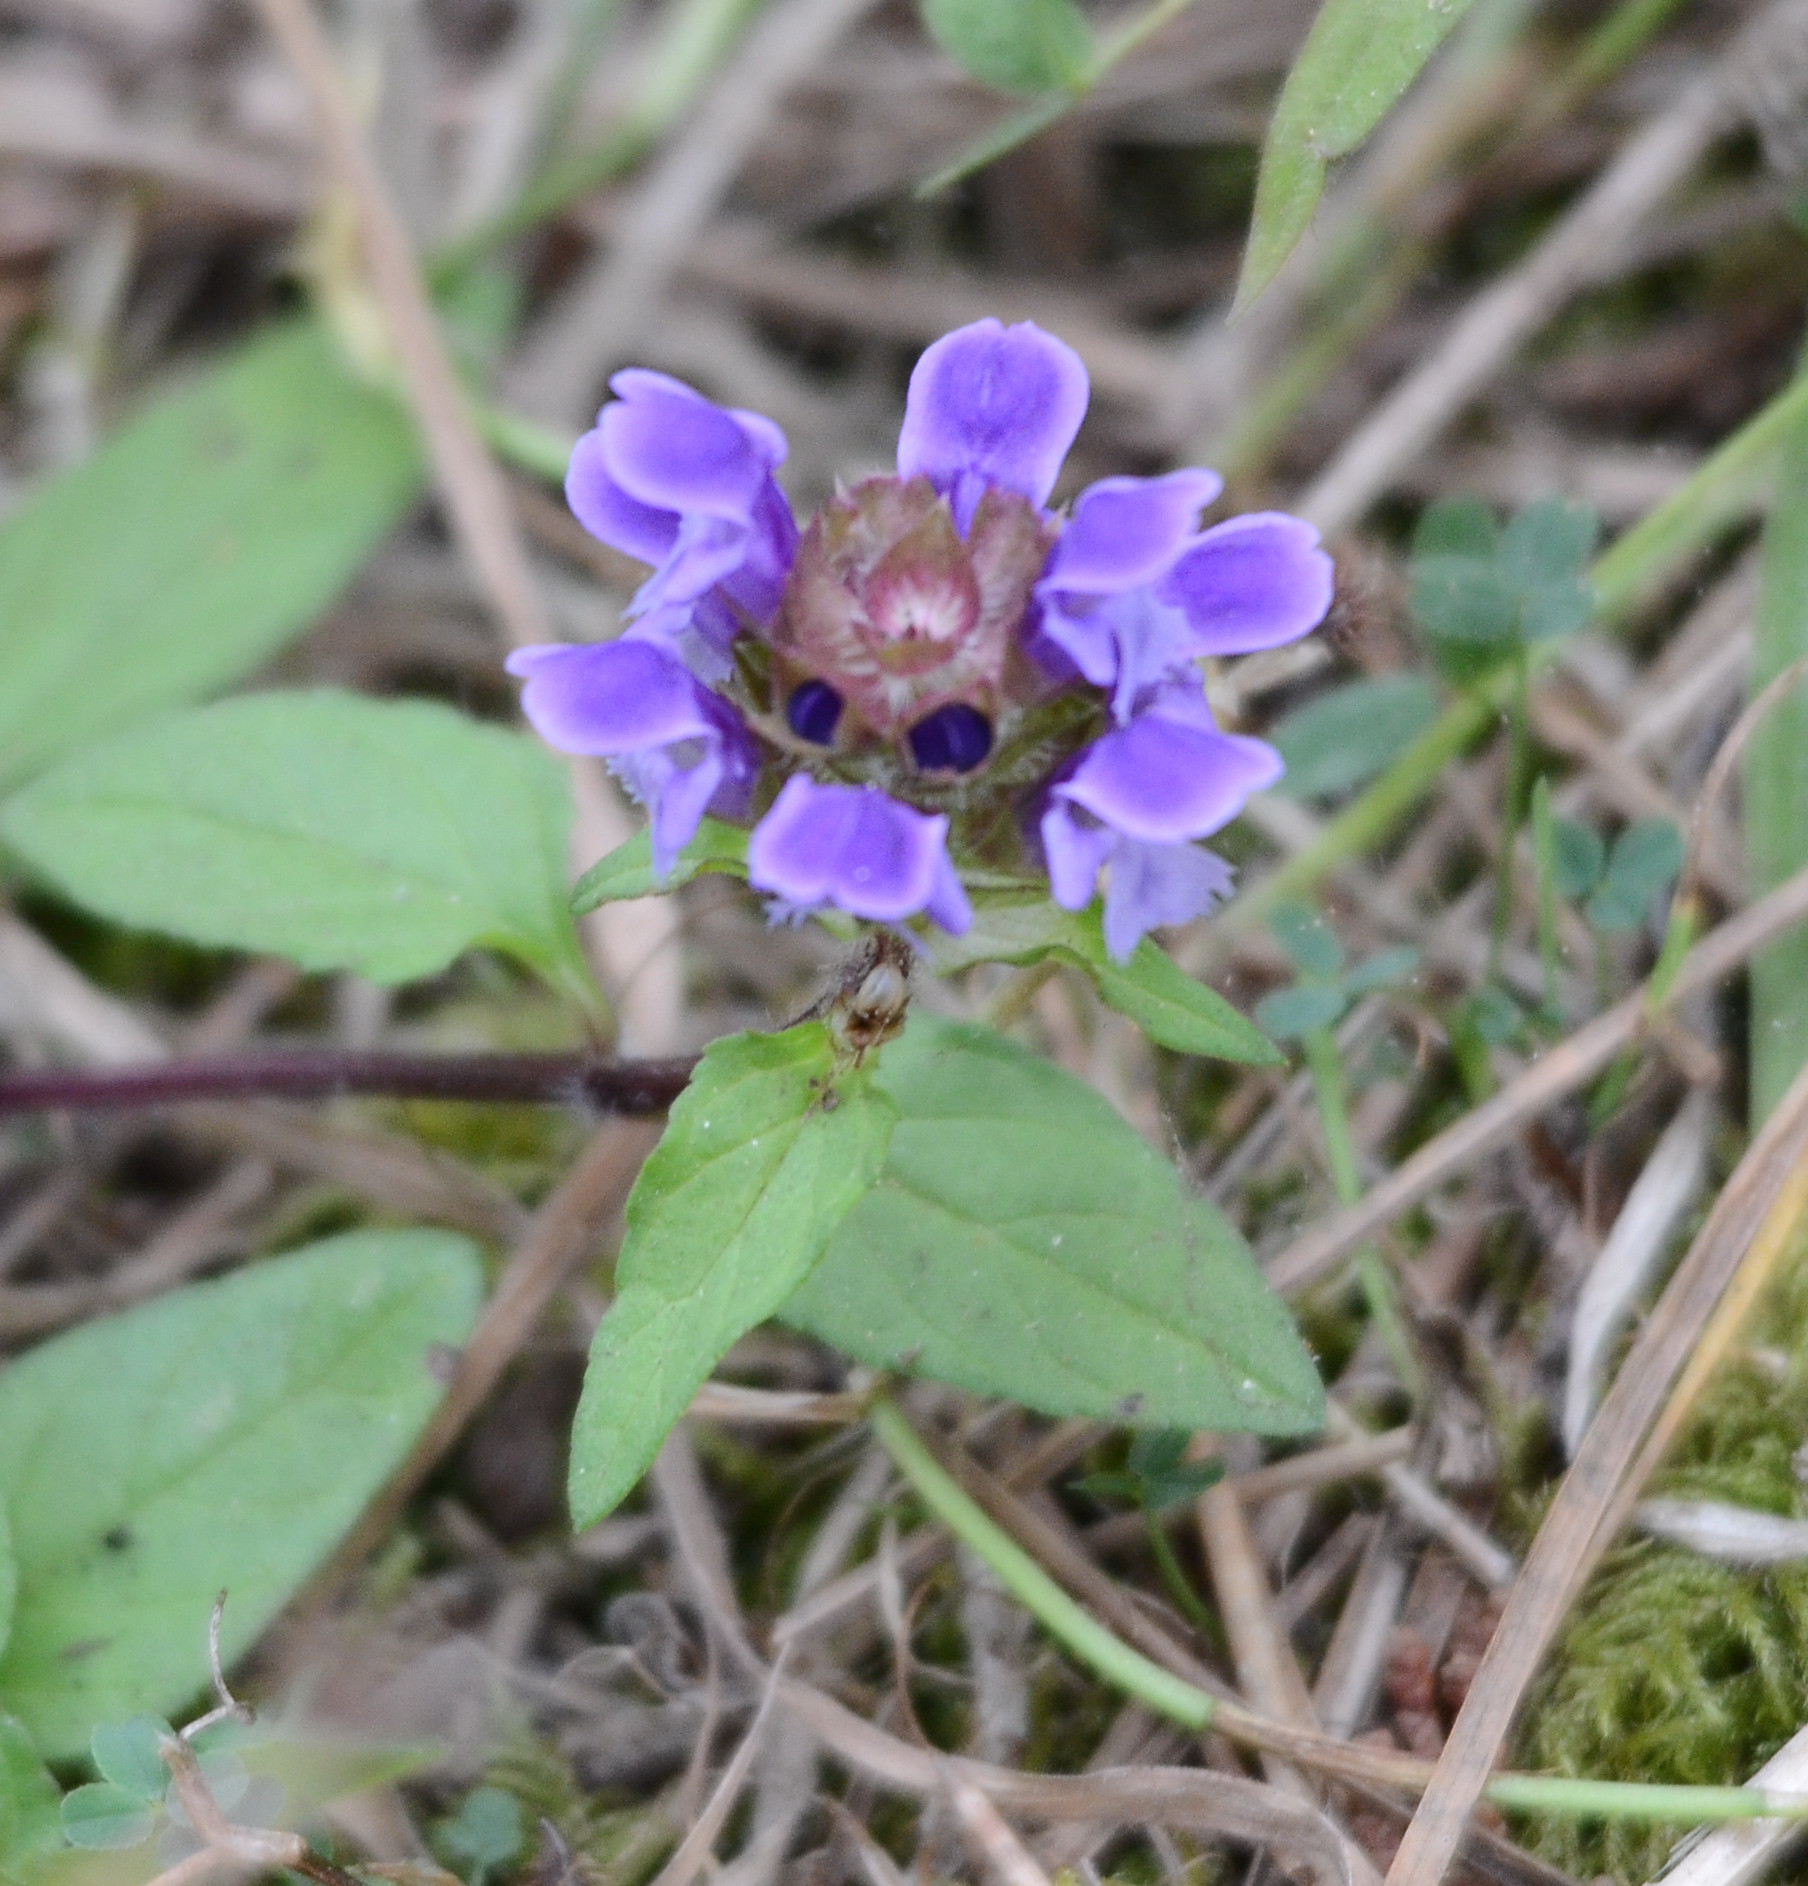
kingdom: Plantae
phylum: Tracheophyta
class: Magnoliopsida
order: Lamiales
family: Lamiaceae
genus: Prunella
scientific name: Prunella vulgaris
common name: Heal-all
